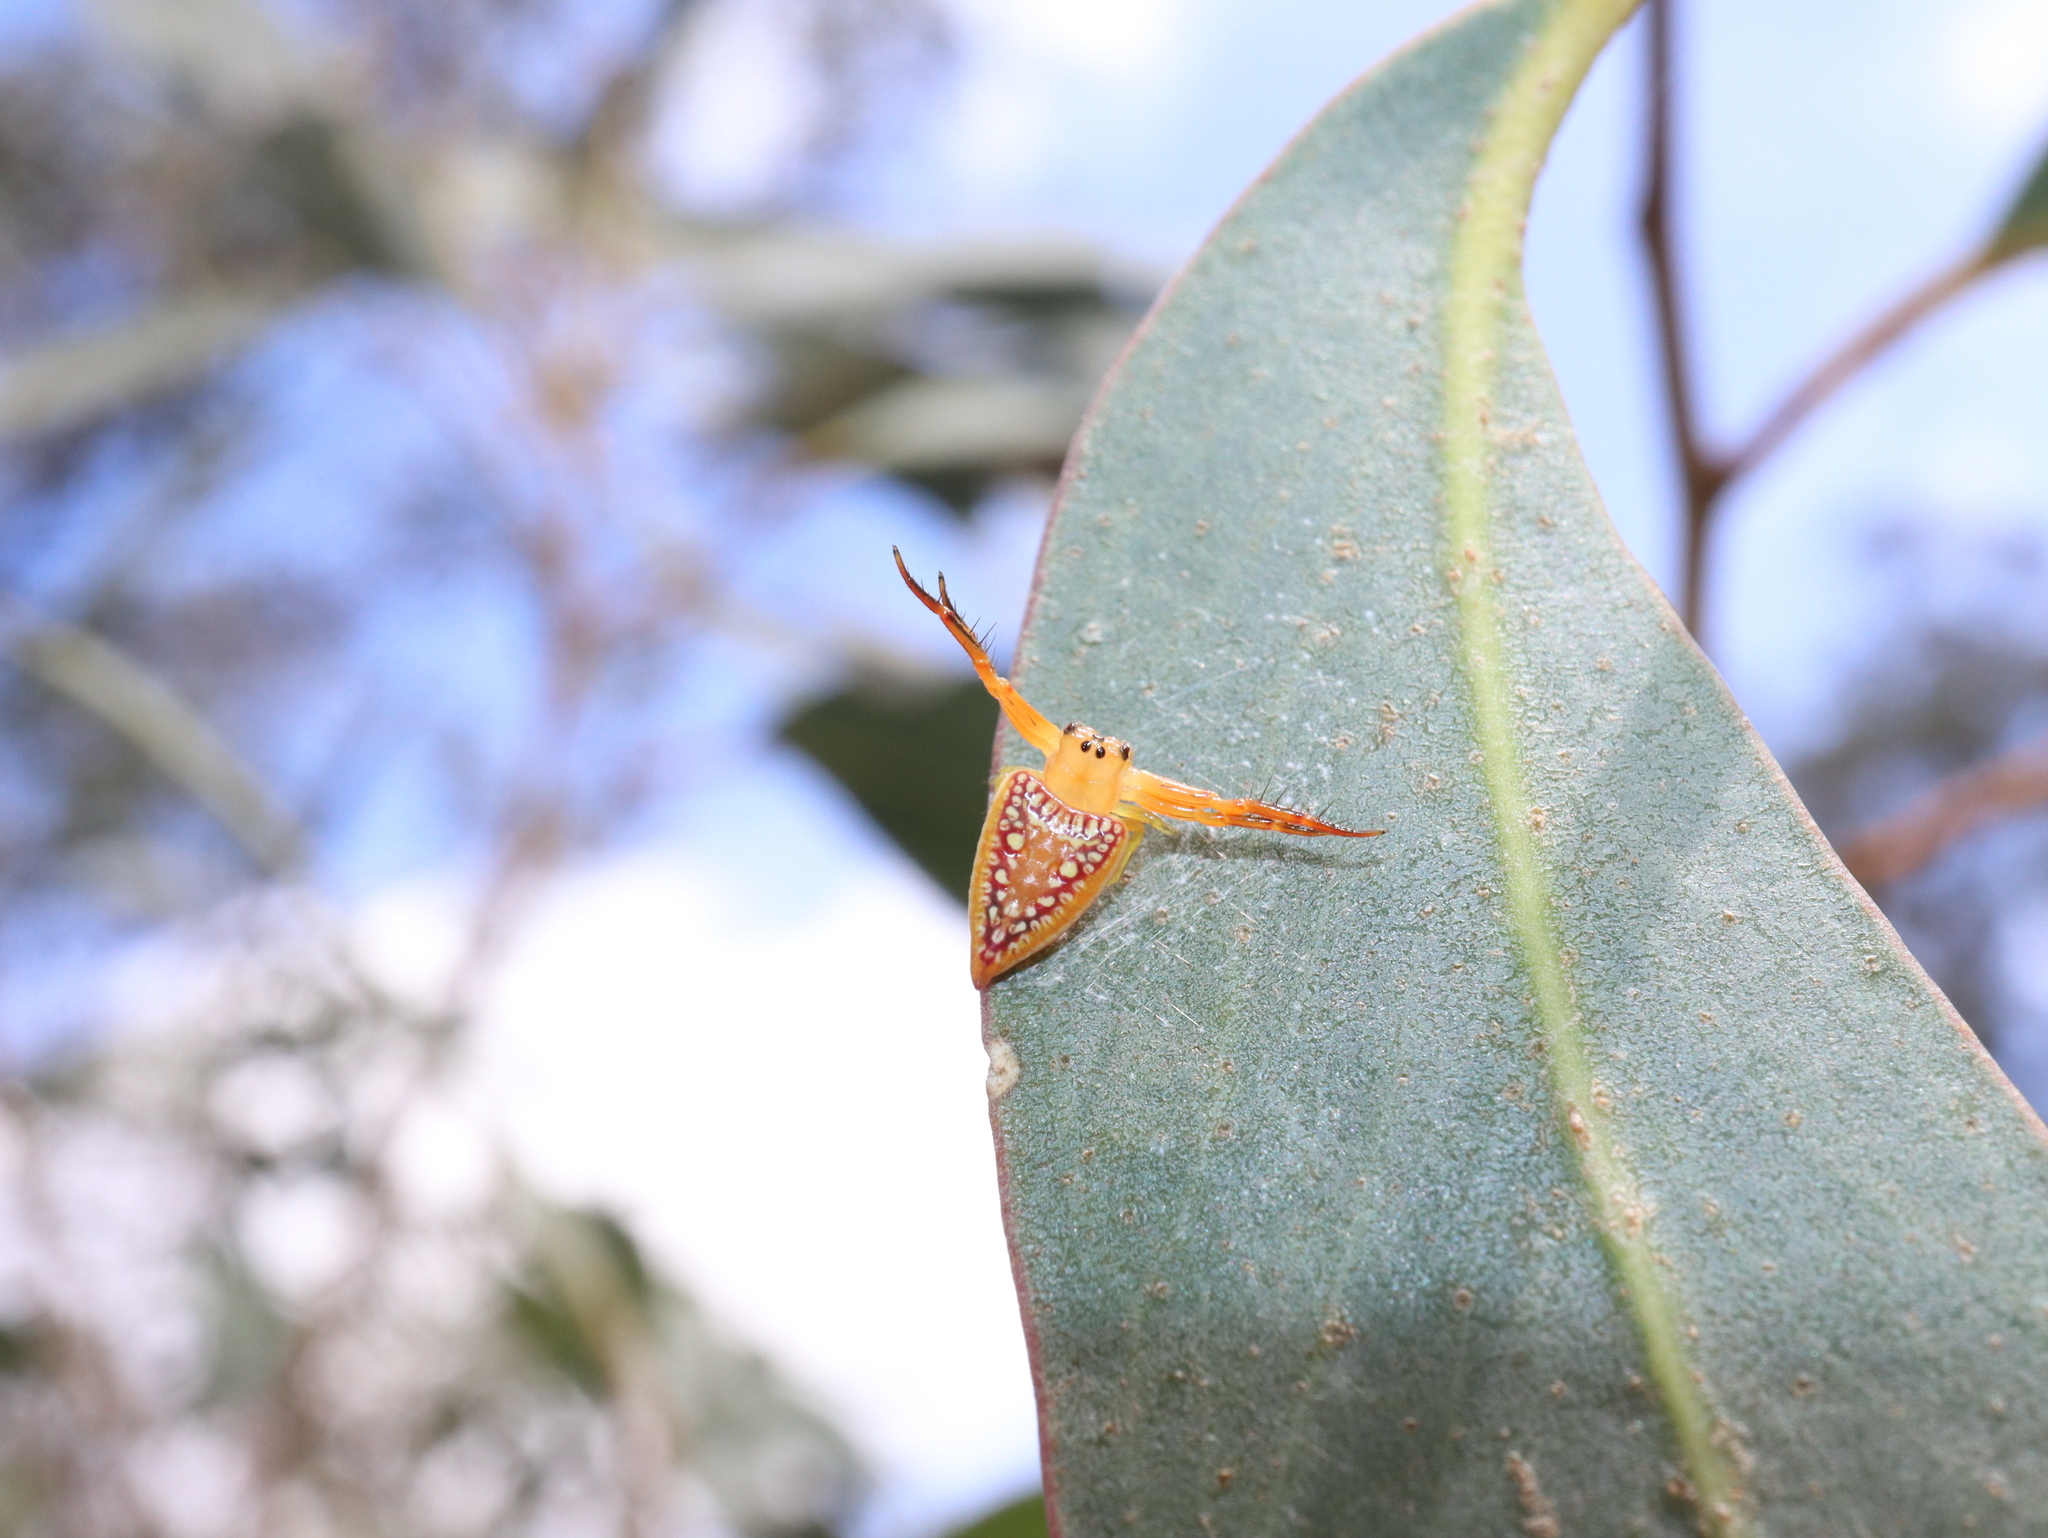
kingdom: Animalia
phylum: Arthropoda
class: Arachnida
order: Araneae
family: Arkyidae
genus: Arkys
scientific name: Arkys walckenaeri
